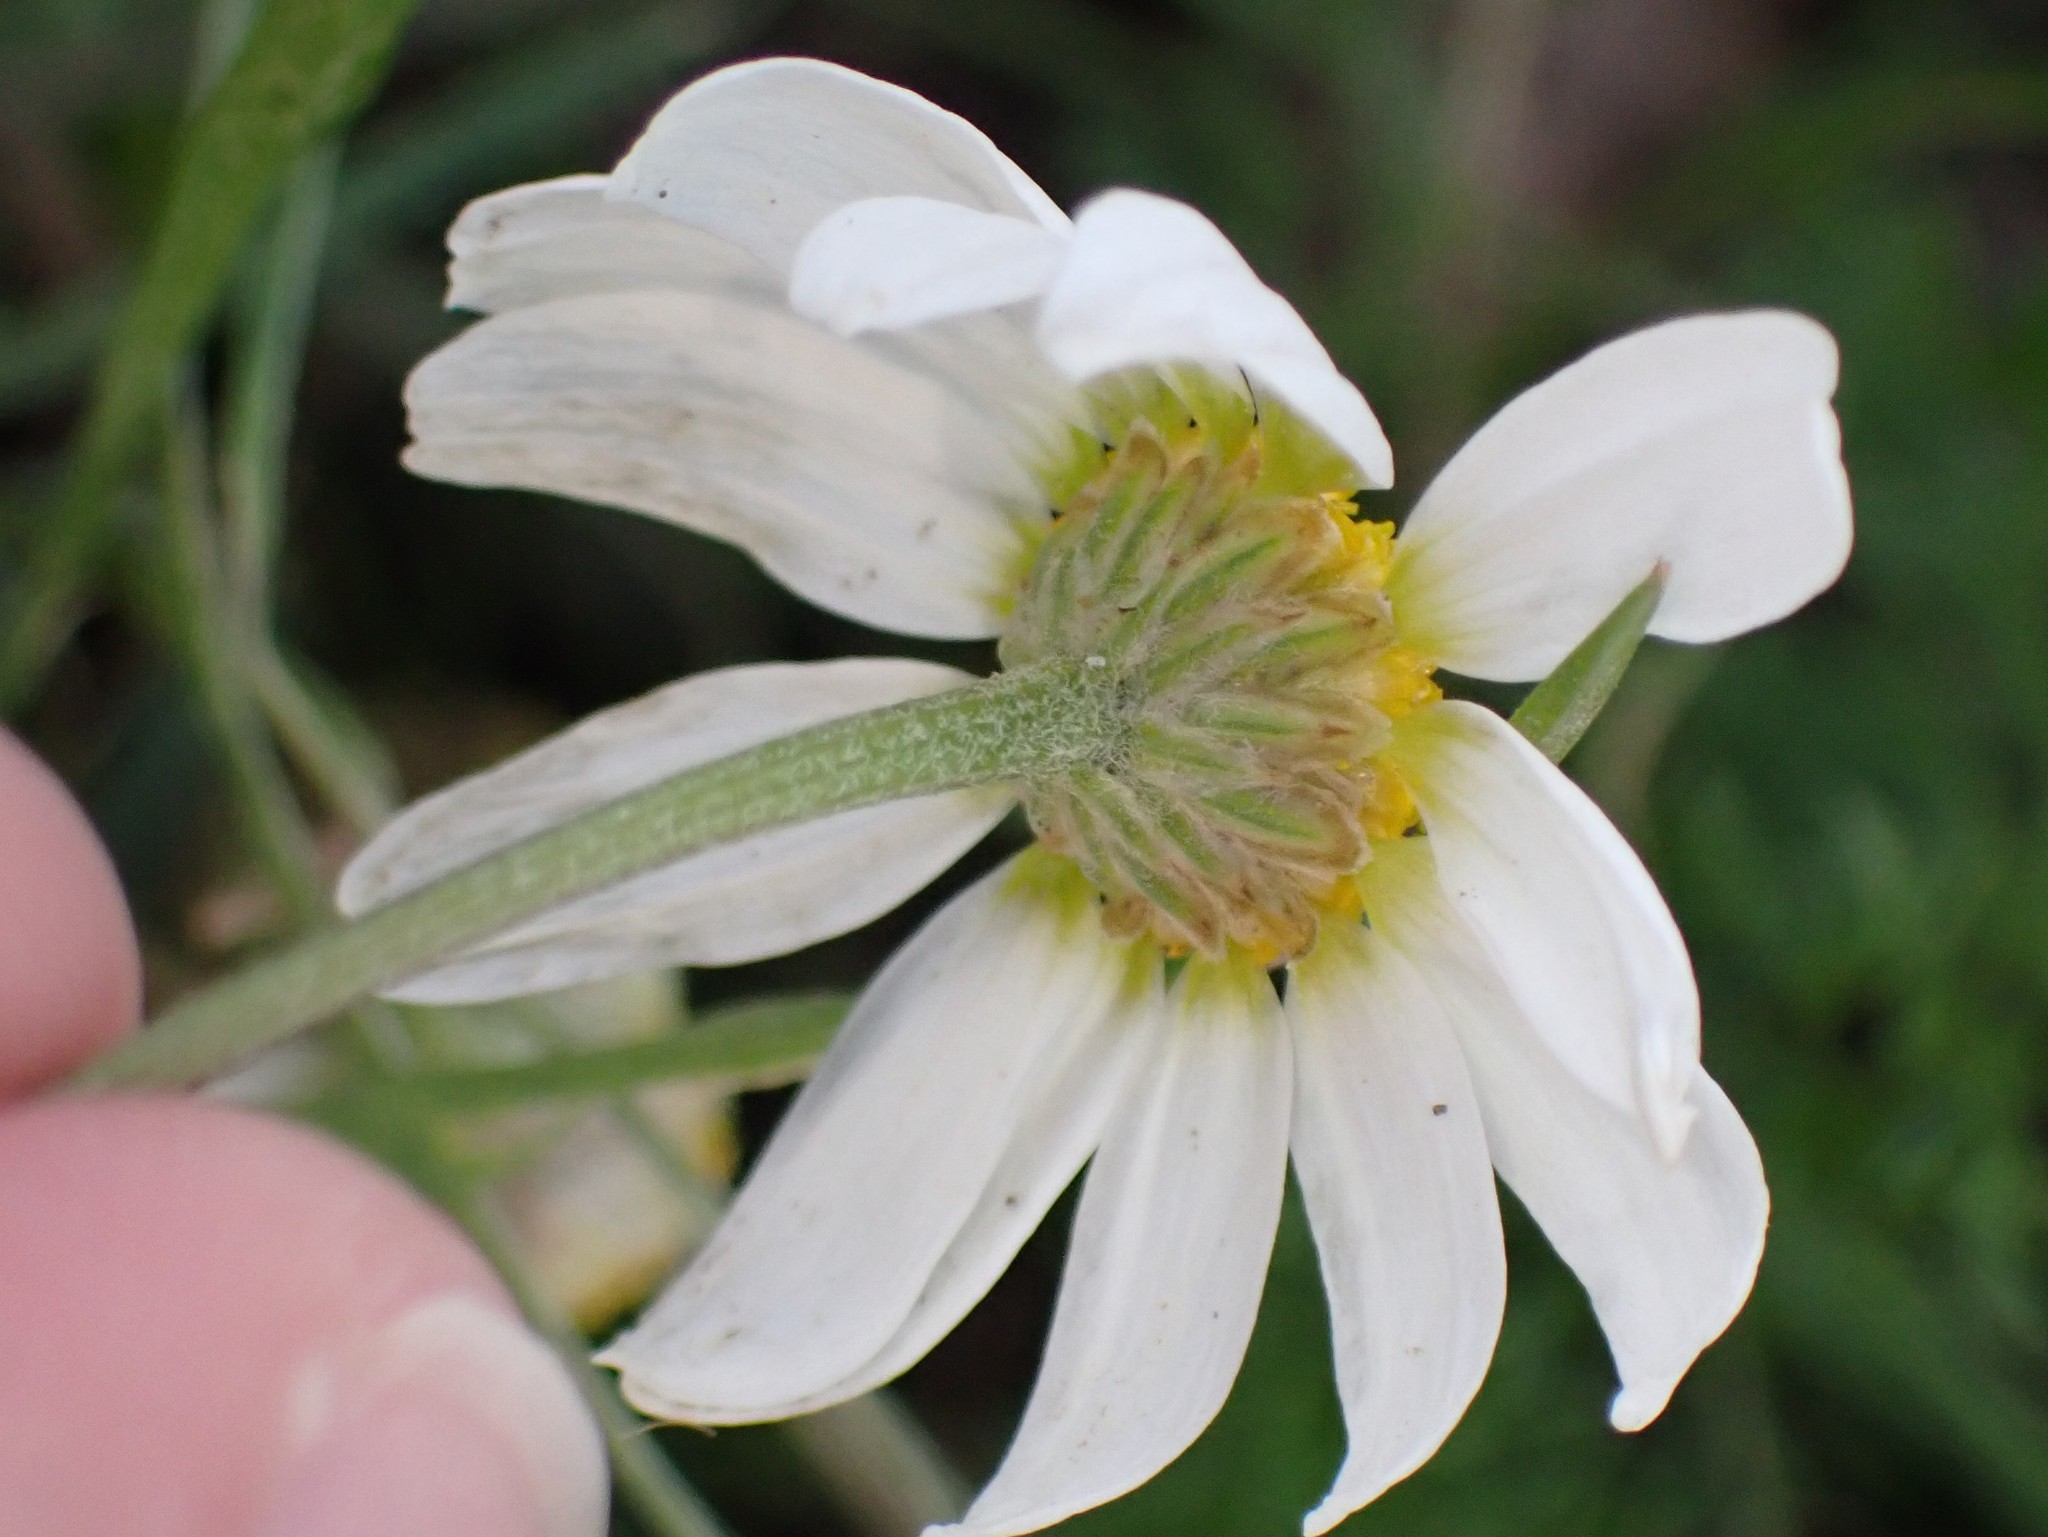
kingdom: Plantae
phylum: Tracheophyta
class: Magnoliopsida
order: Asterales
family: Asteraceae
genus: Tripleurospermum
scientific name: Tripleurospermum inodorum
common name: Scentless mayweed
